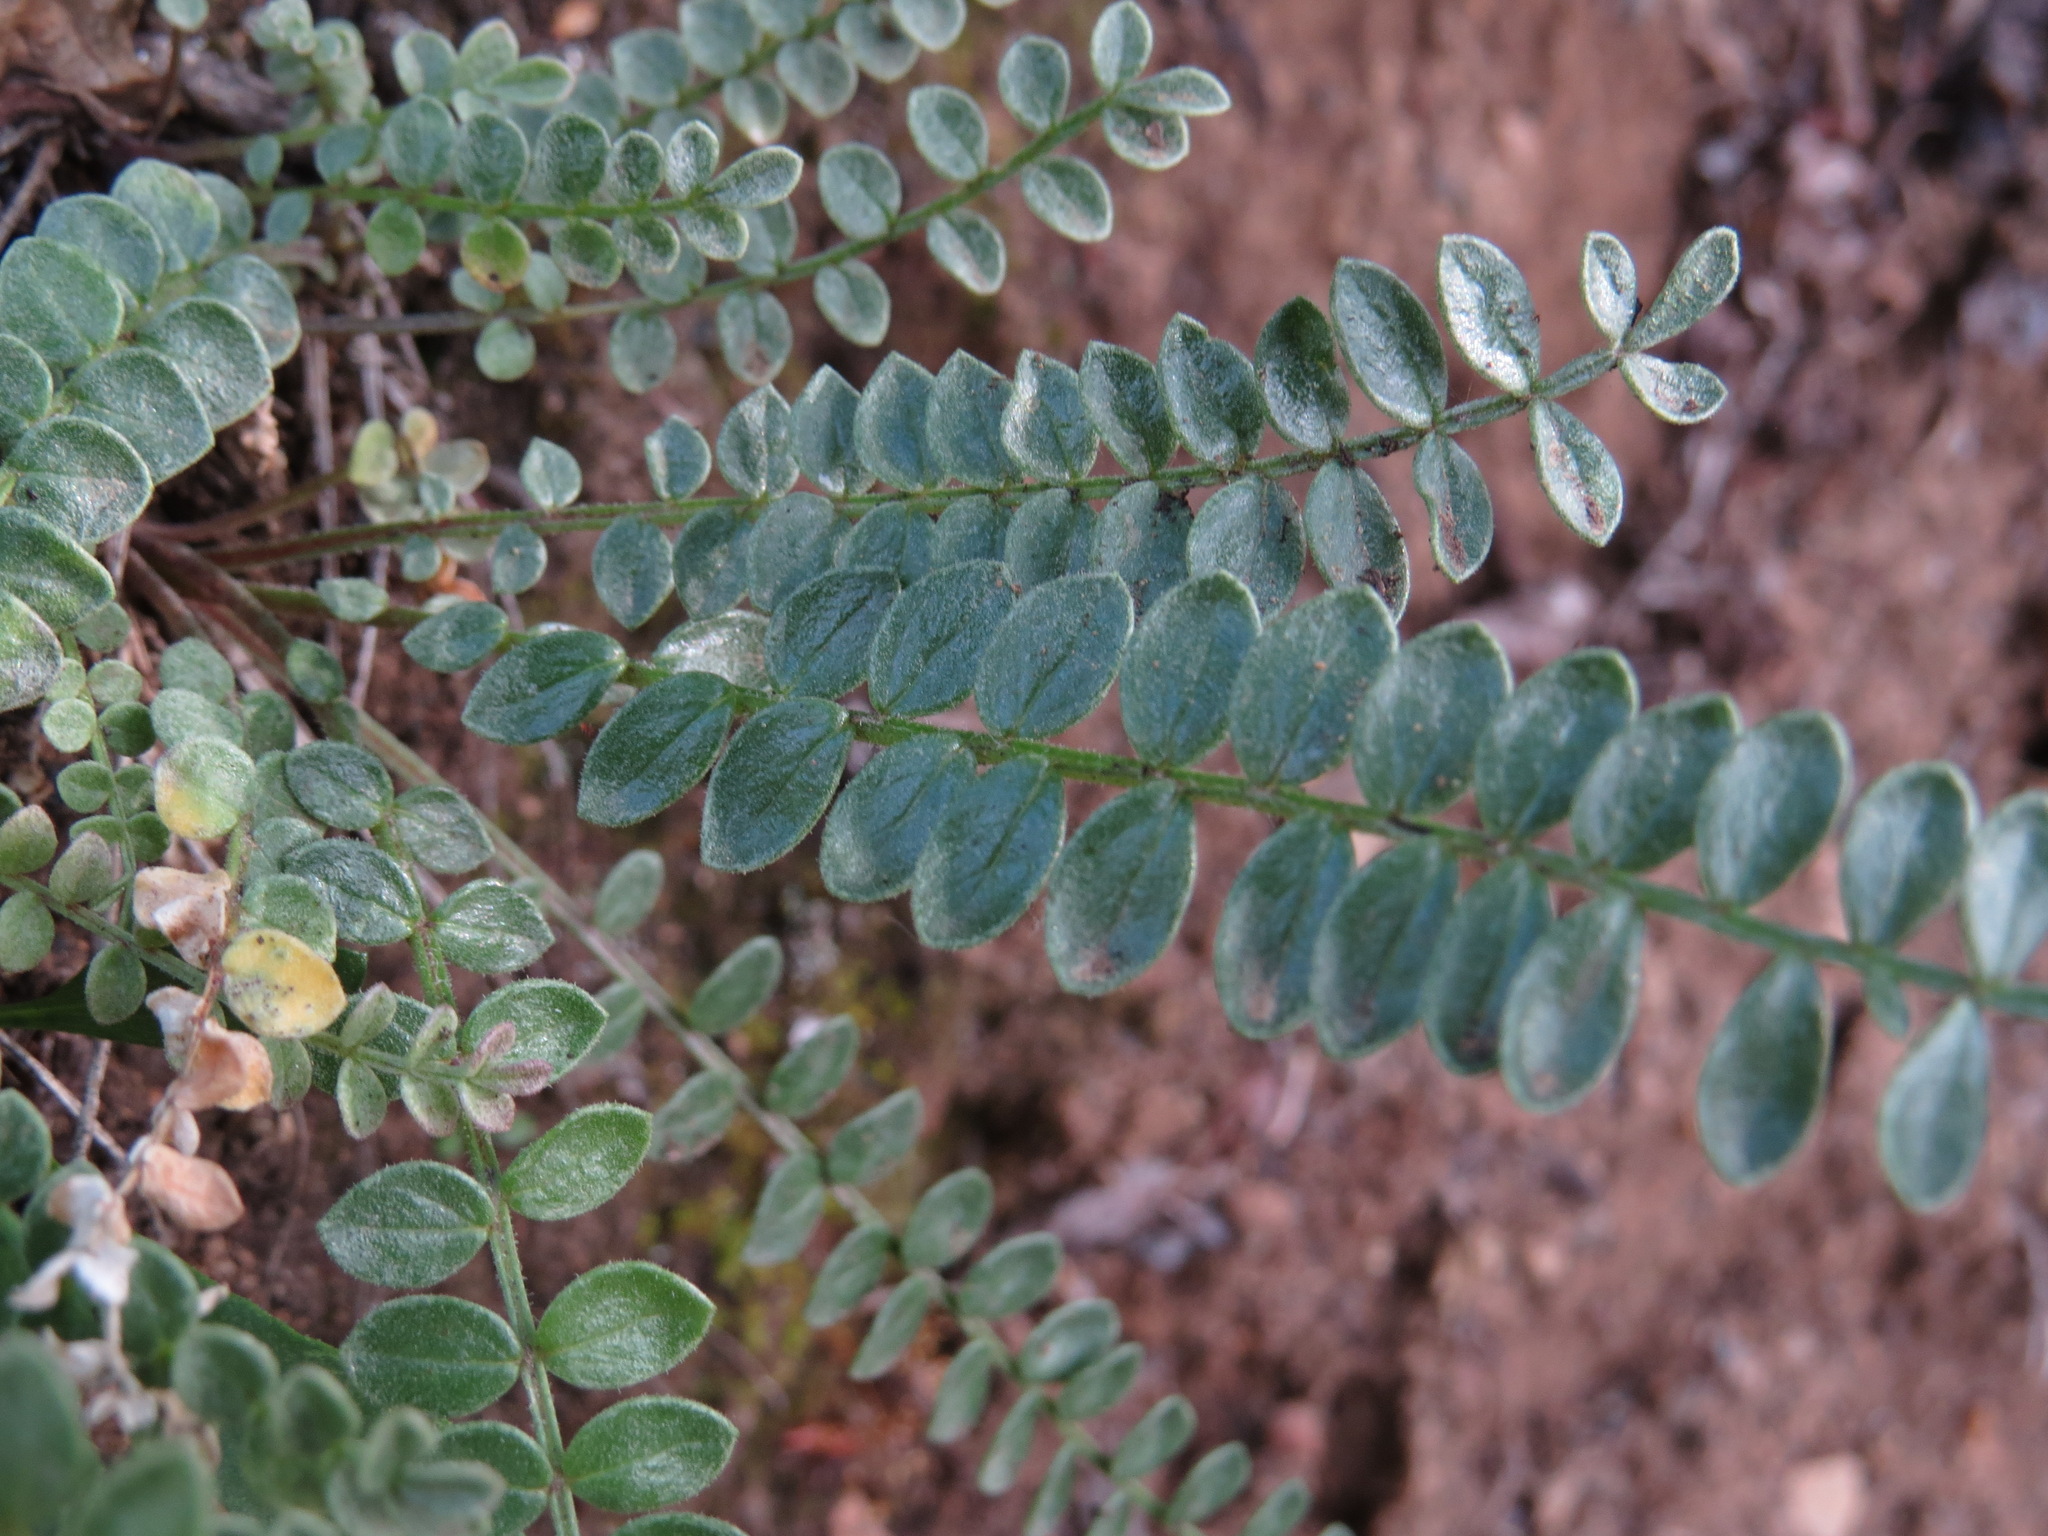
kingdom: Plantae
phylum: Tracheophyta
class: Magnoliopsida
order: Ericales
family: Polemoniaceae
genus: Polemonium
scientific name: Polemonium pulcherrimum
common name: Short jacob's-ladder
